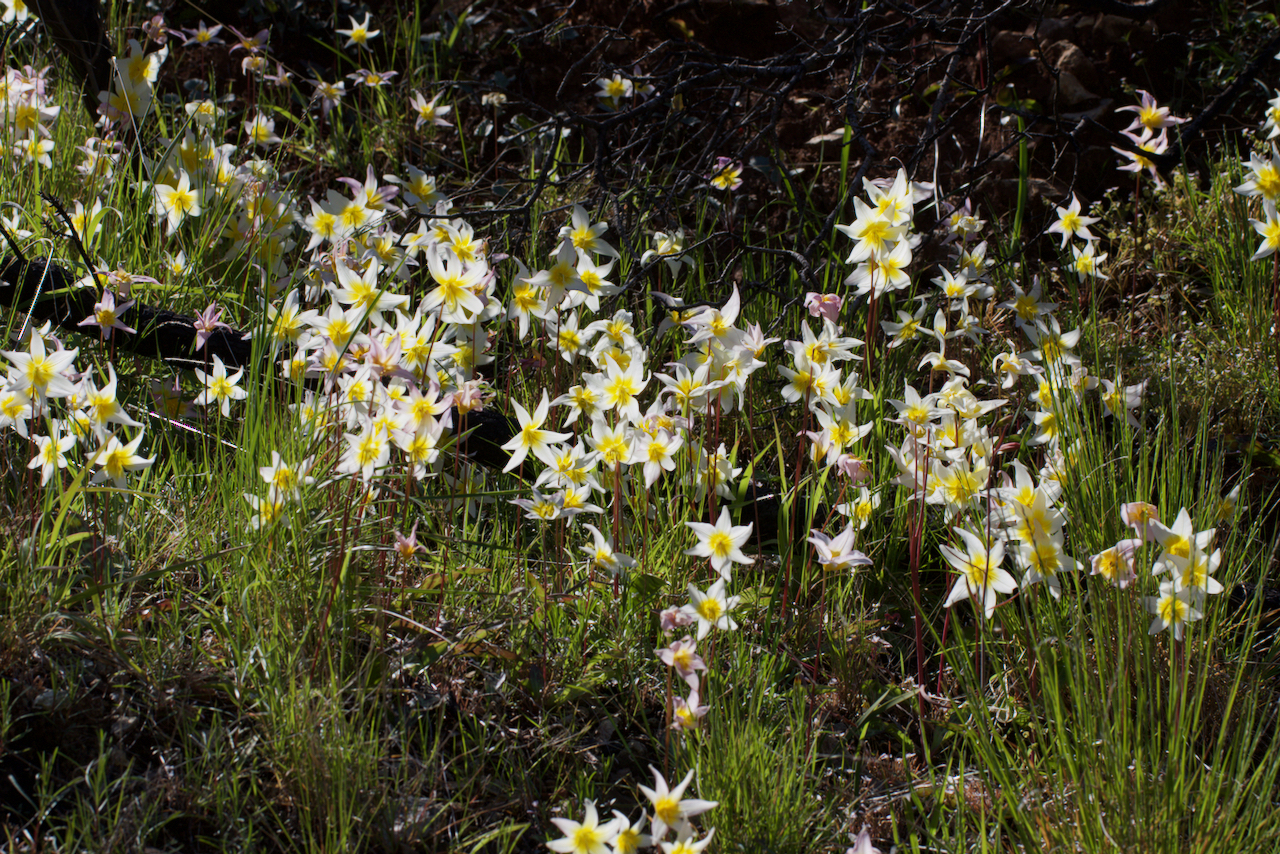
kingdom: Plantae
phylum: Tracheophyta
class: Liliopsida
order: Liliales
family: Liliaceae
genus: Erythronium
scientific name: Erythronium helenae
